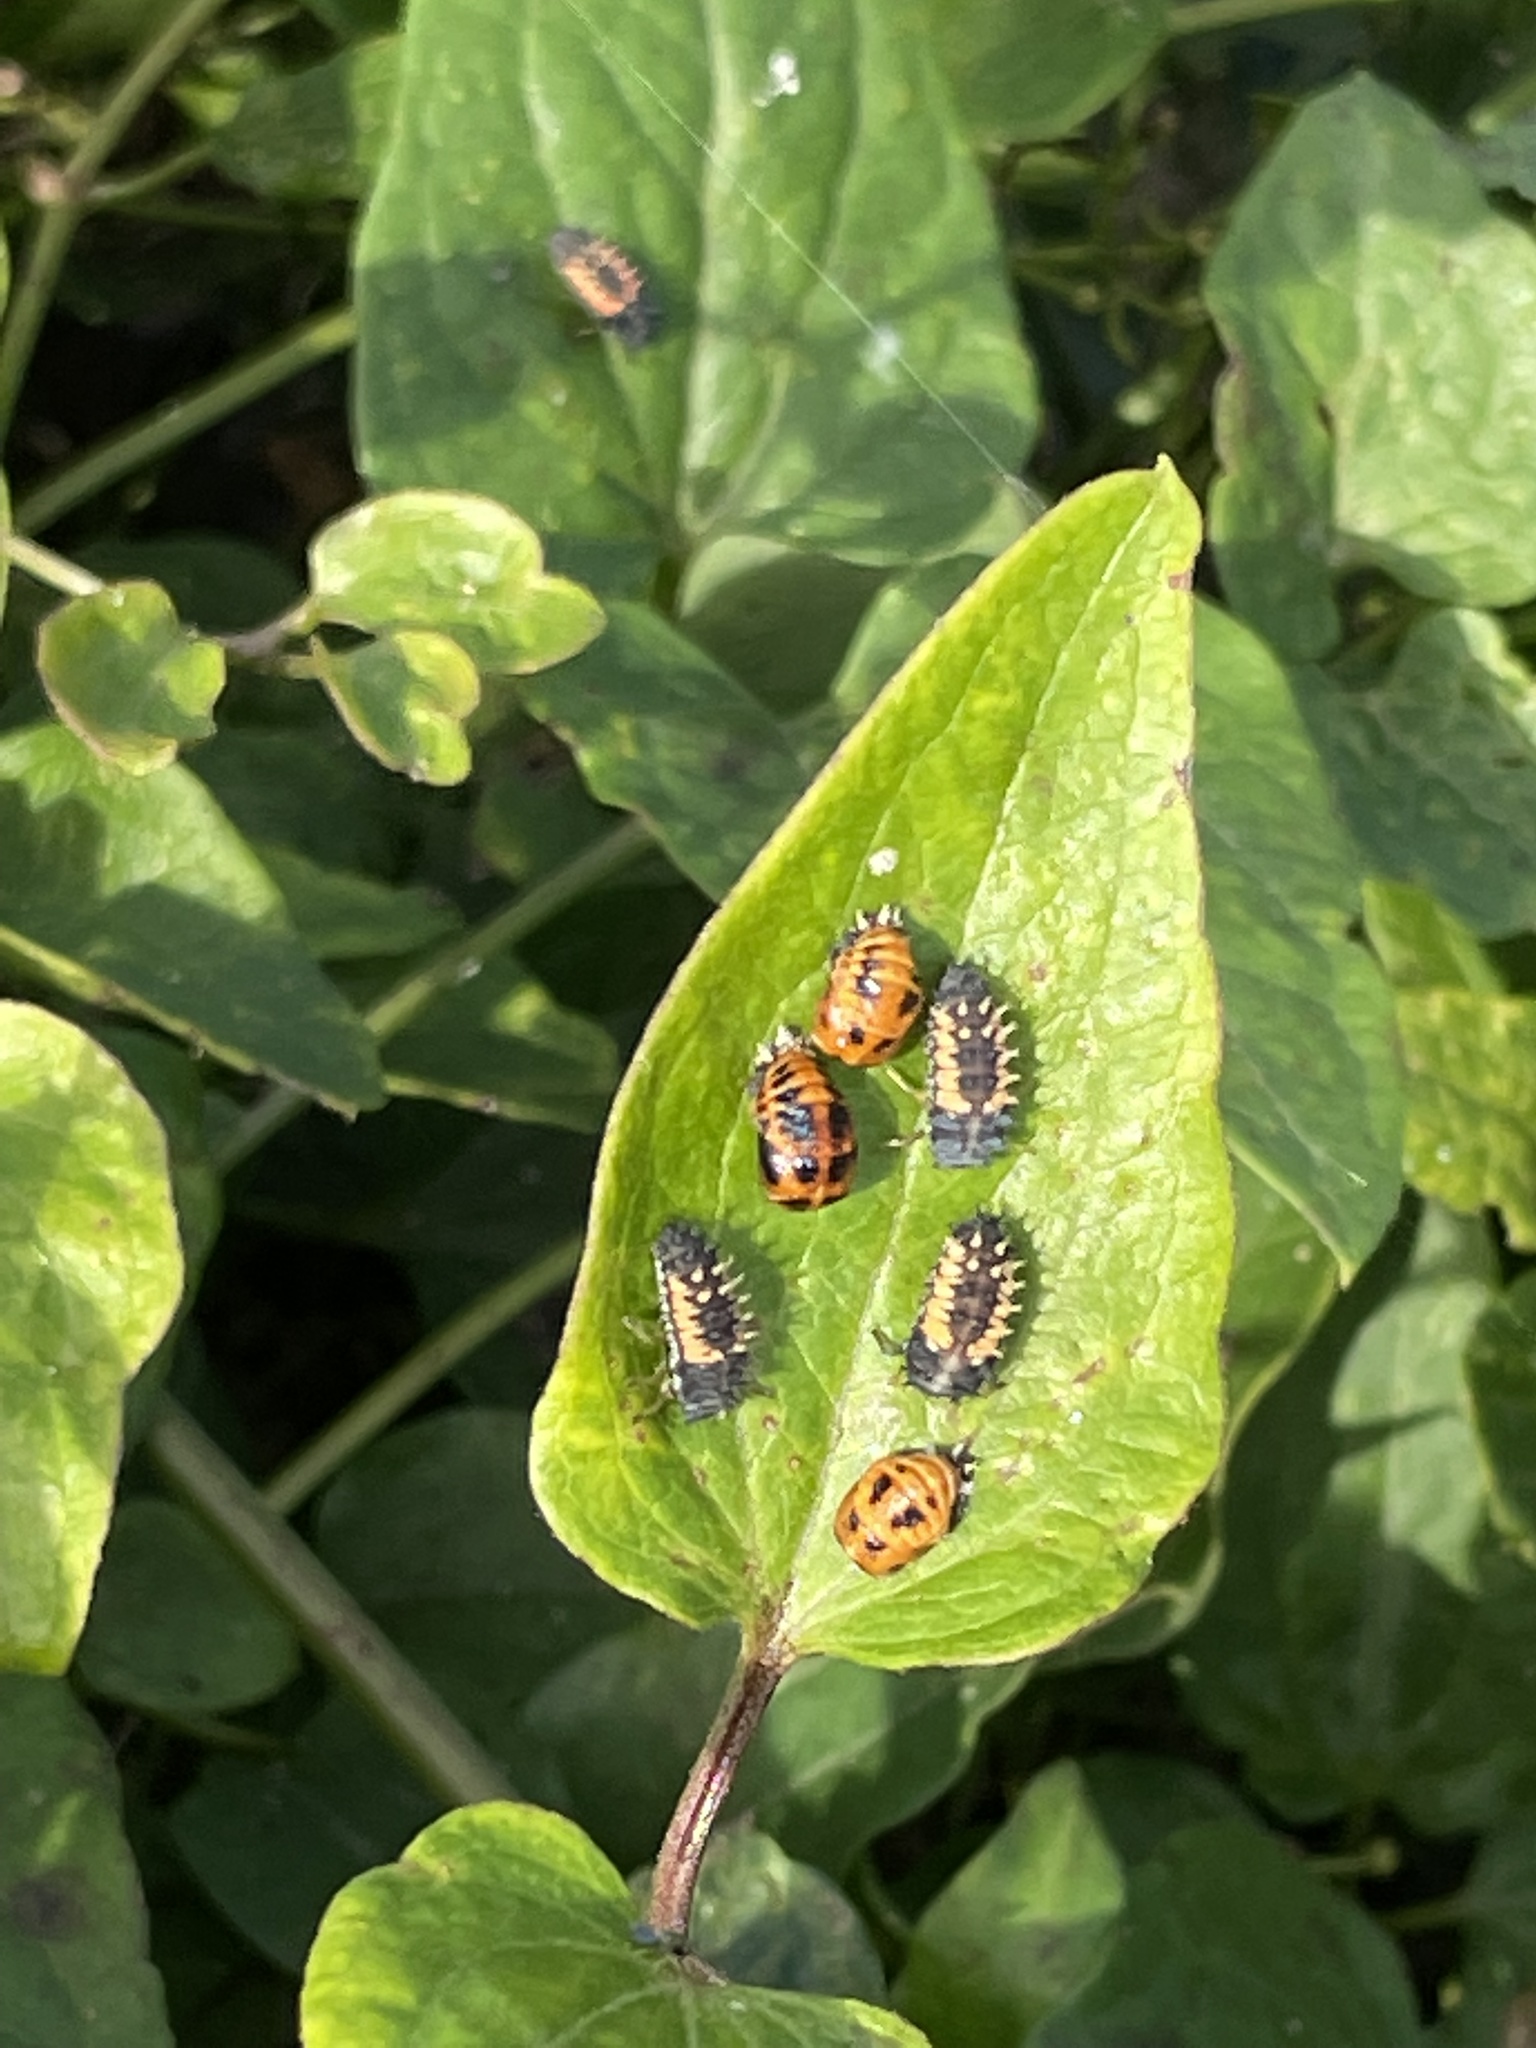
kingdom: Animalia
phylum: Arthropoda
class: Insecta
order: Coleoptera
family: Coccinellidae
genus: Harmonia
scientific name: Harmonia axyridis
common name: Harlequin ladybird
